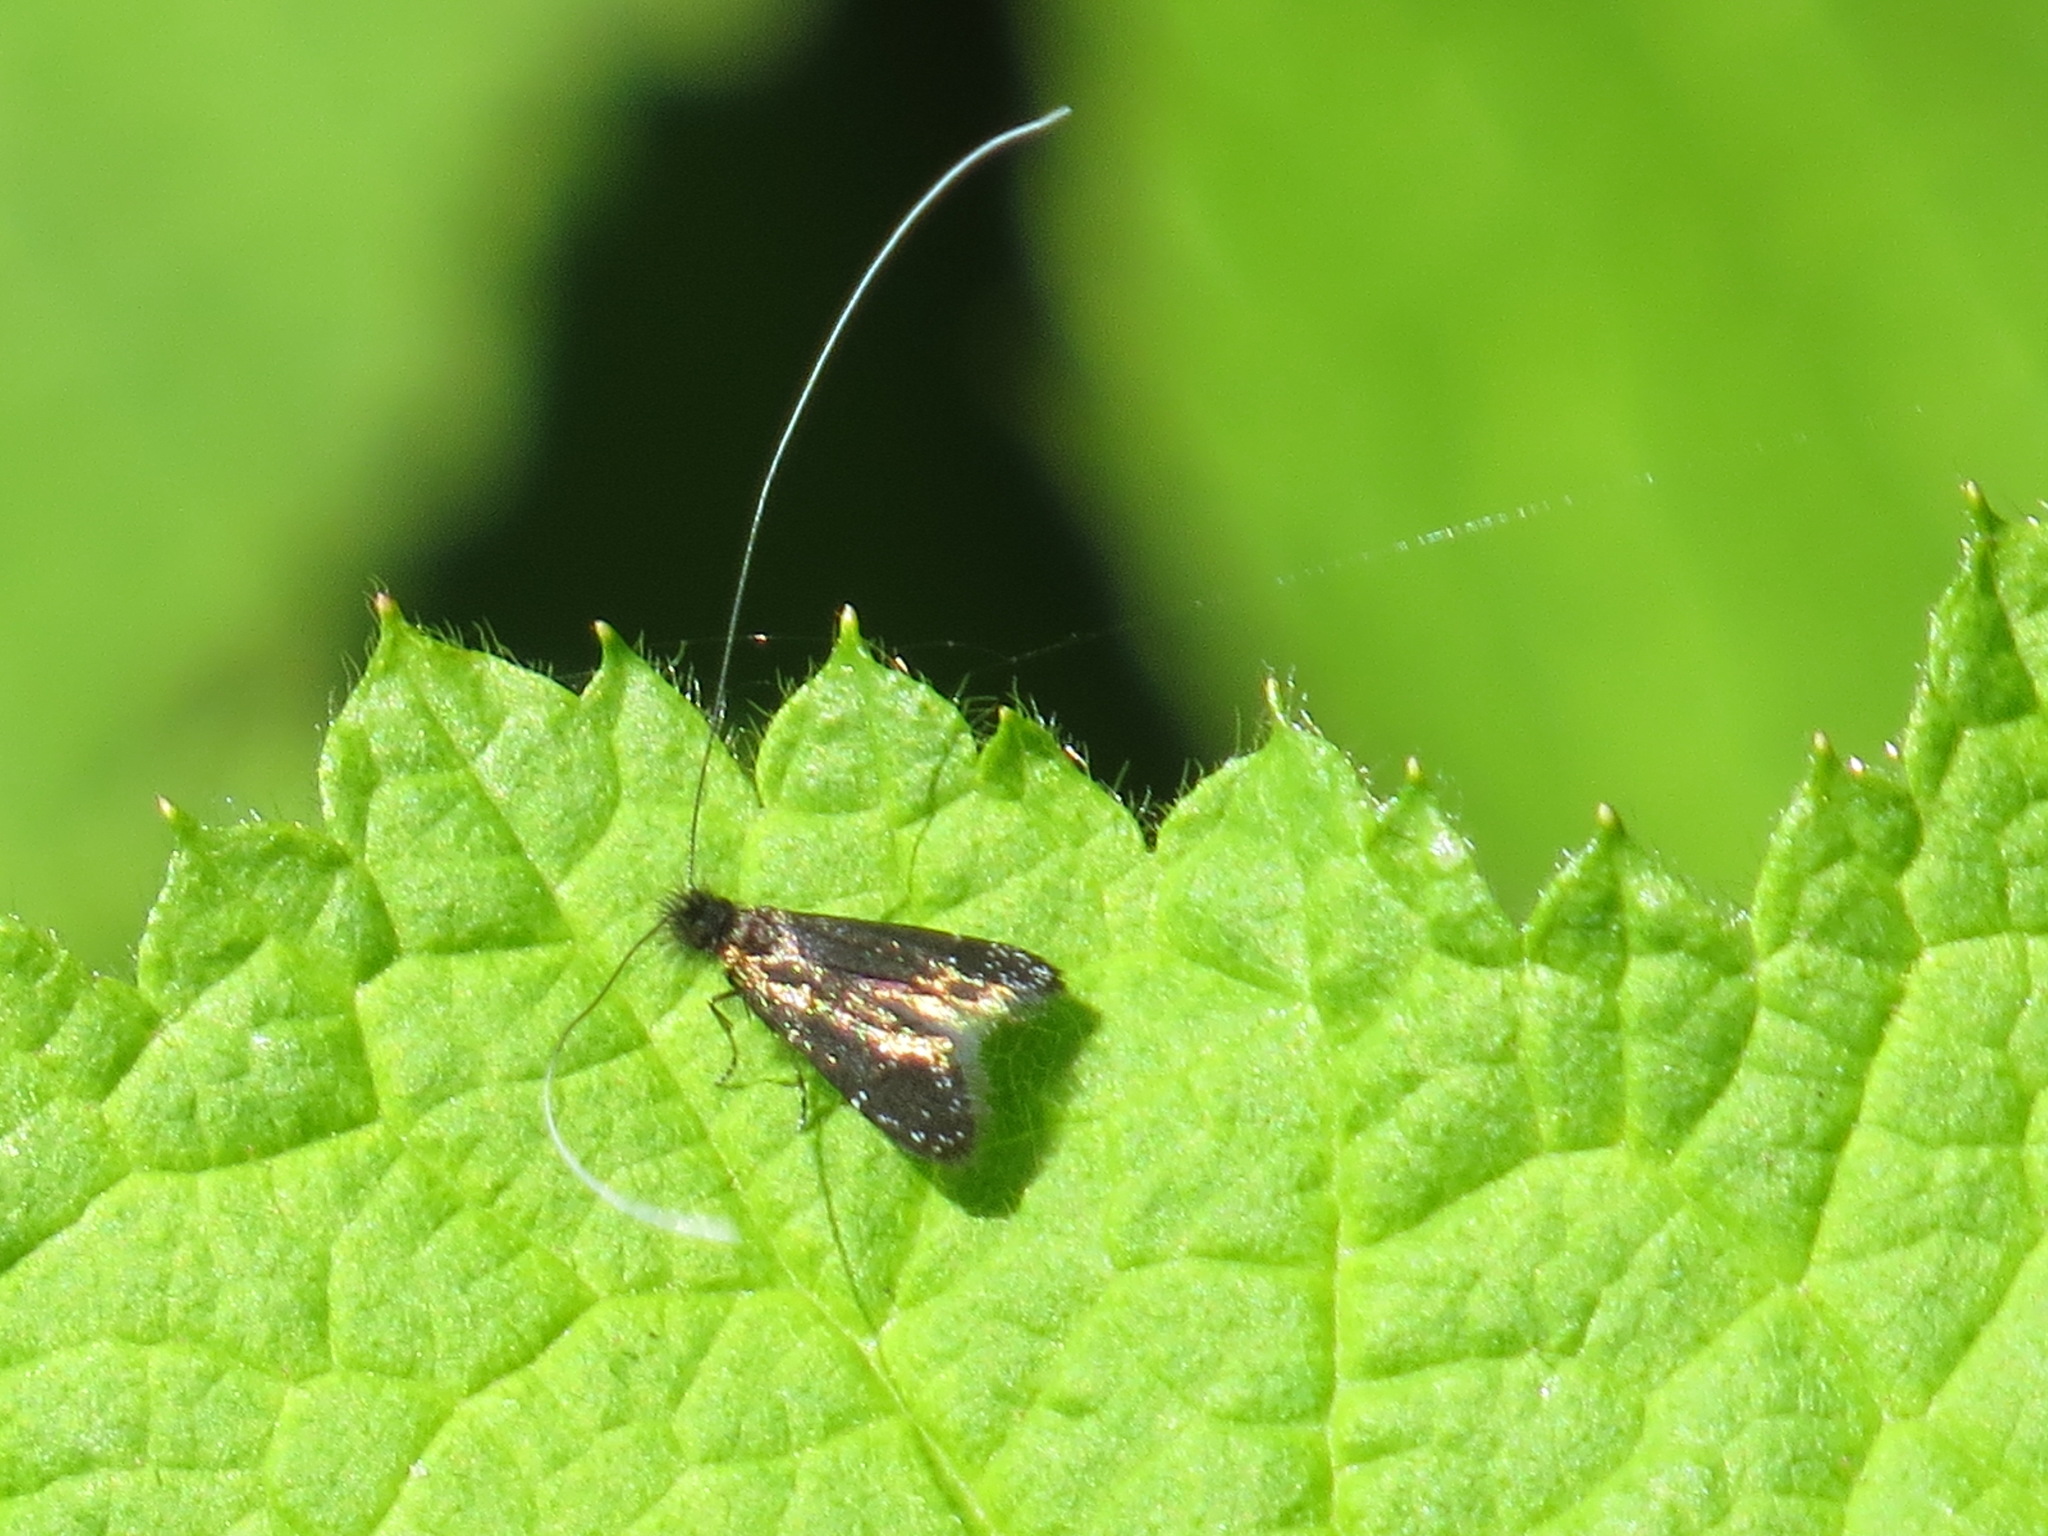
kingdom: Animalia
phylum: Arthropoda
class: Insecta
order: Lepidoptera
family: Adelidae
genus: Adela
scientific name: Adela septentrionella
